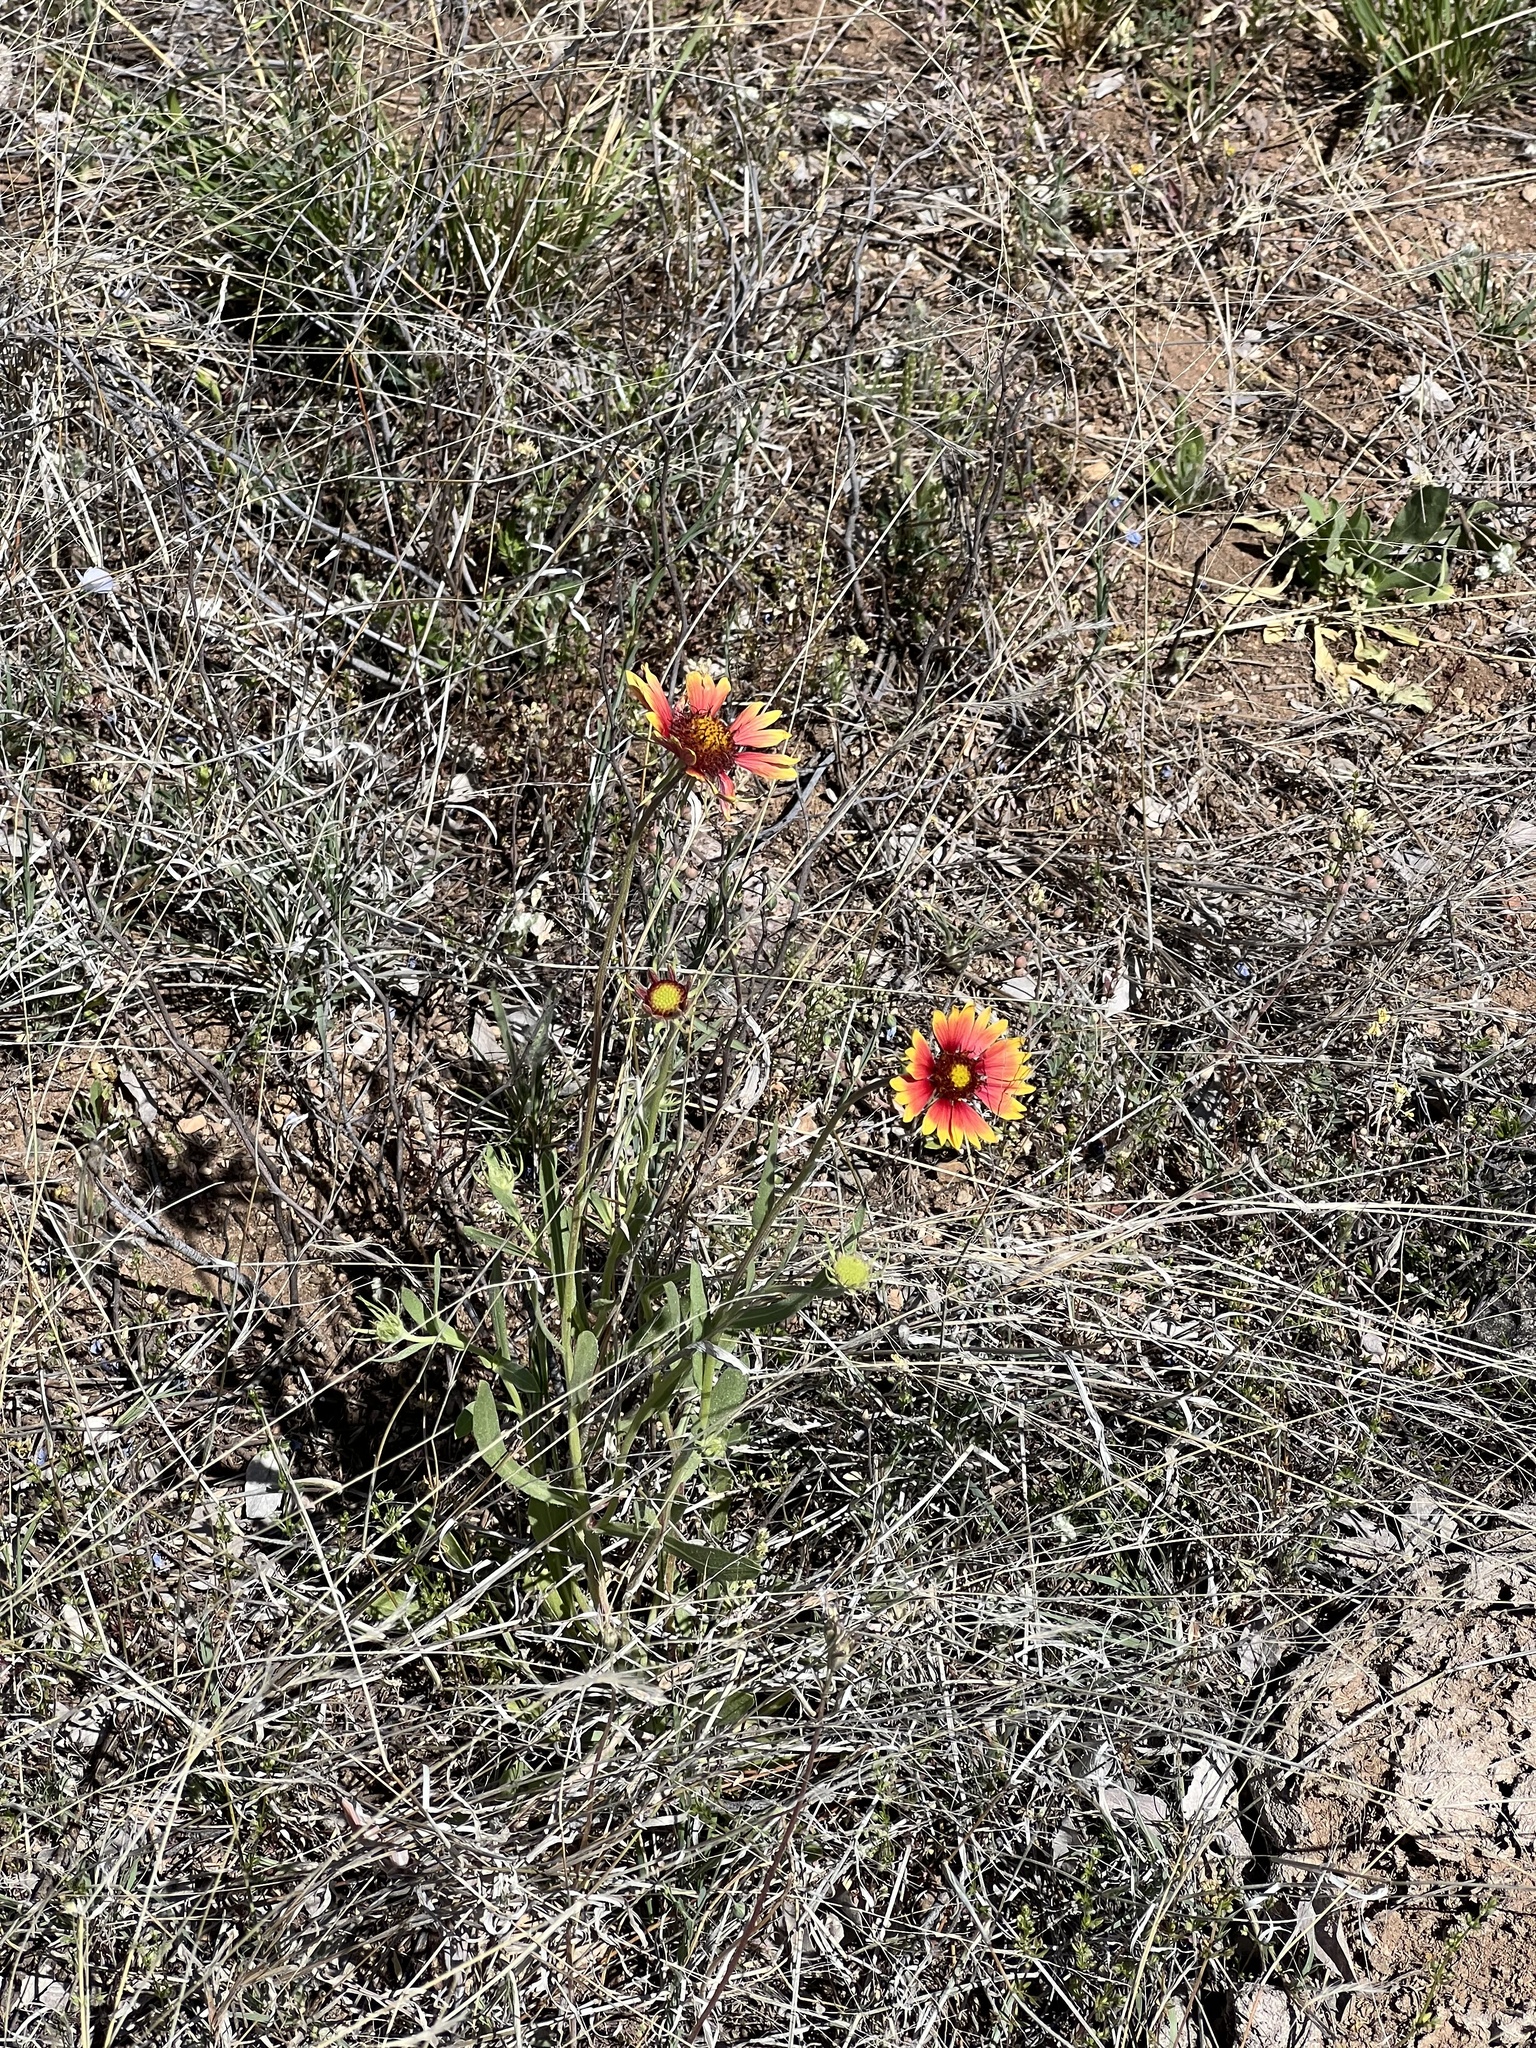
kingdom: Plantae
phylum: Tracheophyta
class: Magnoliopsida
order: Asterales
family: Asteraceae
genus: Gaillardia
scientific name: Gaillardia pulchella
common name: Firewheel
